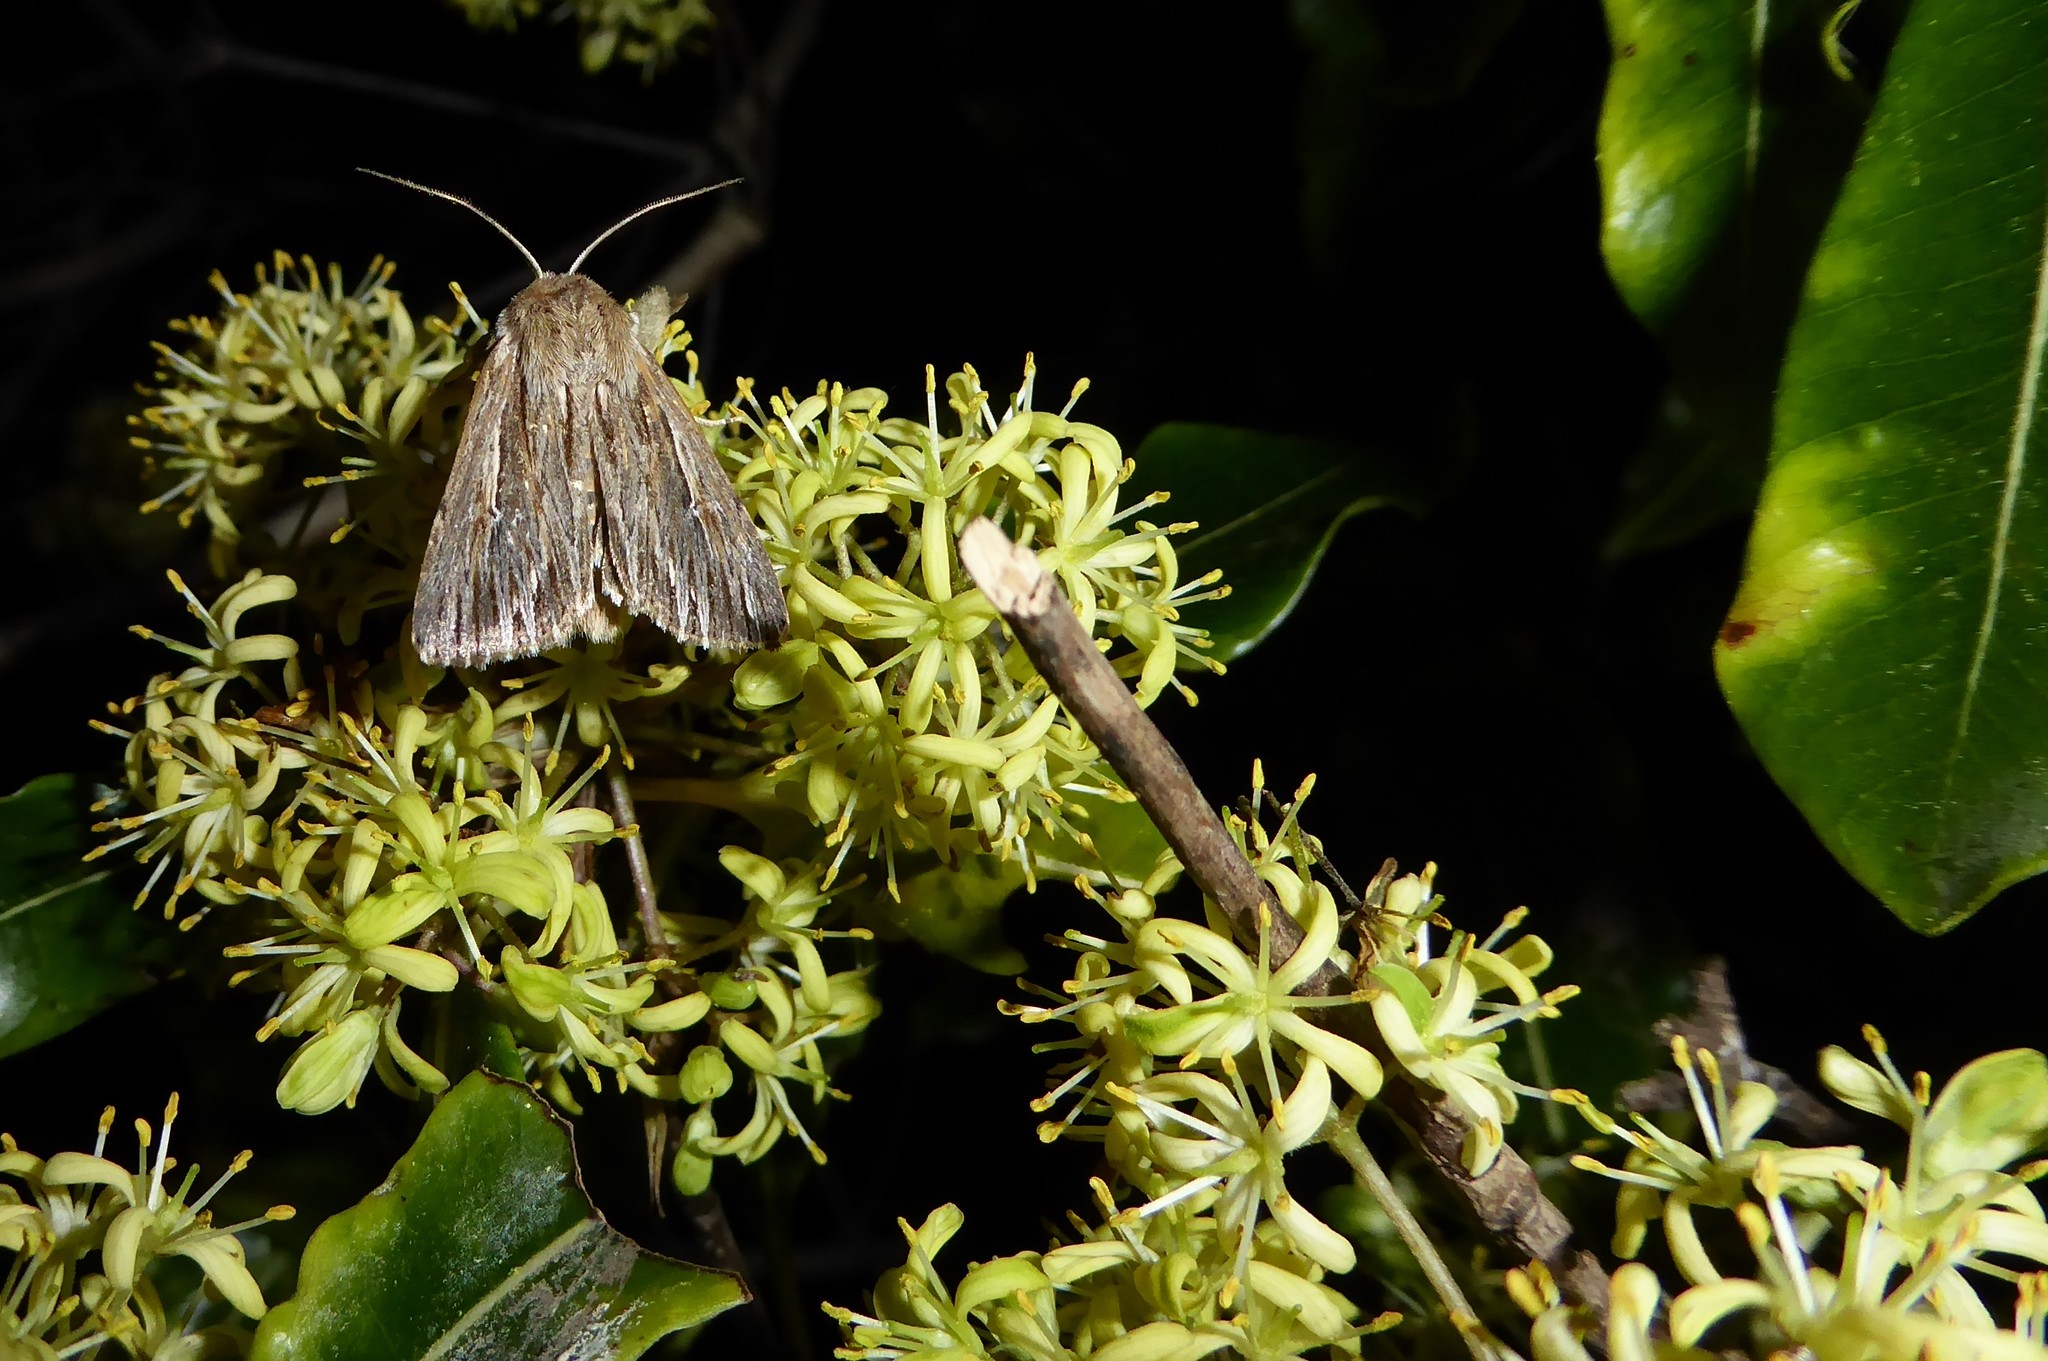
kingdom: Animalia
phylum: Arthropoda
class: Insecta
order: Lepidoptera
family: Noctuidae
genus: Persectania
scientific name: Persectania aversa
